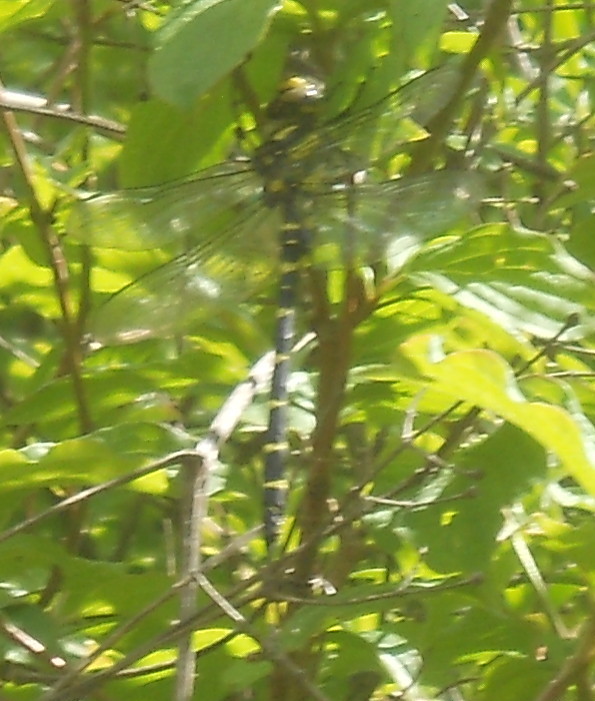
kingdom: Animalia
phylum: Arthropoda
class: Insecta
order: Odonata
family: Cordulegastridae
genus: Cordulegaster
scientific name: Cordulegaster bidentata
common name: Sombre goldenring
